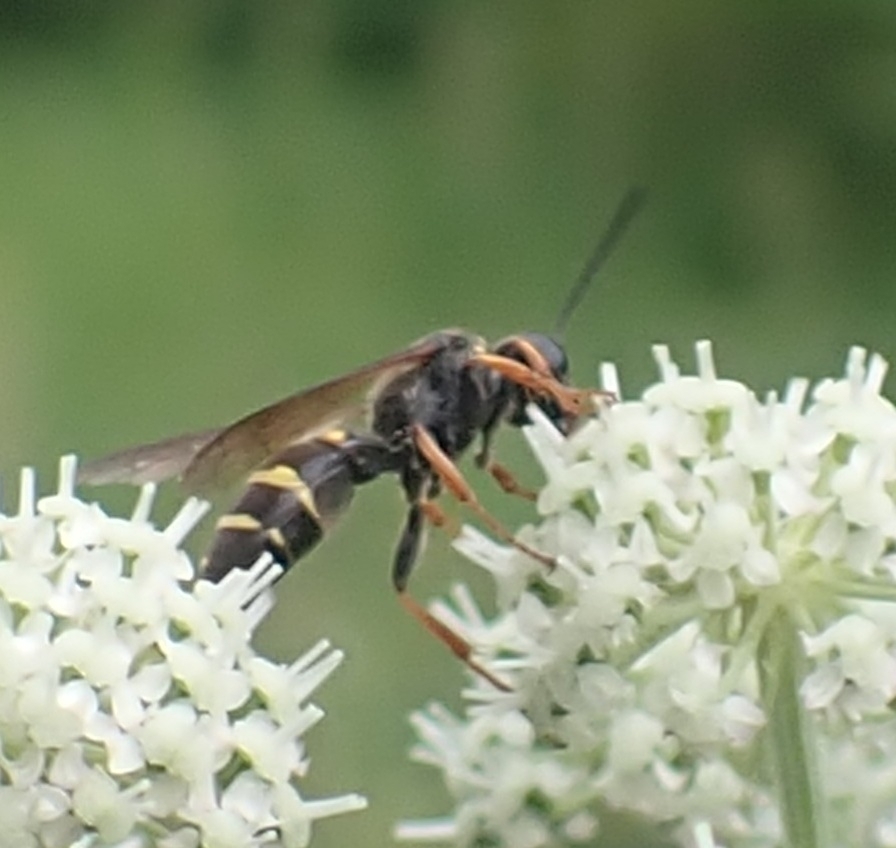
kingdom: Animalia
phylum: Arthropoda
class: Insecta
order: Hymenoptera
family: Crabronidae
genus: Argogorytes
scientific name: Argogorytes mystaceus
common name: Field digger wasp
